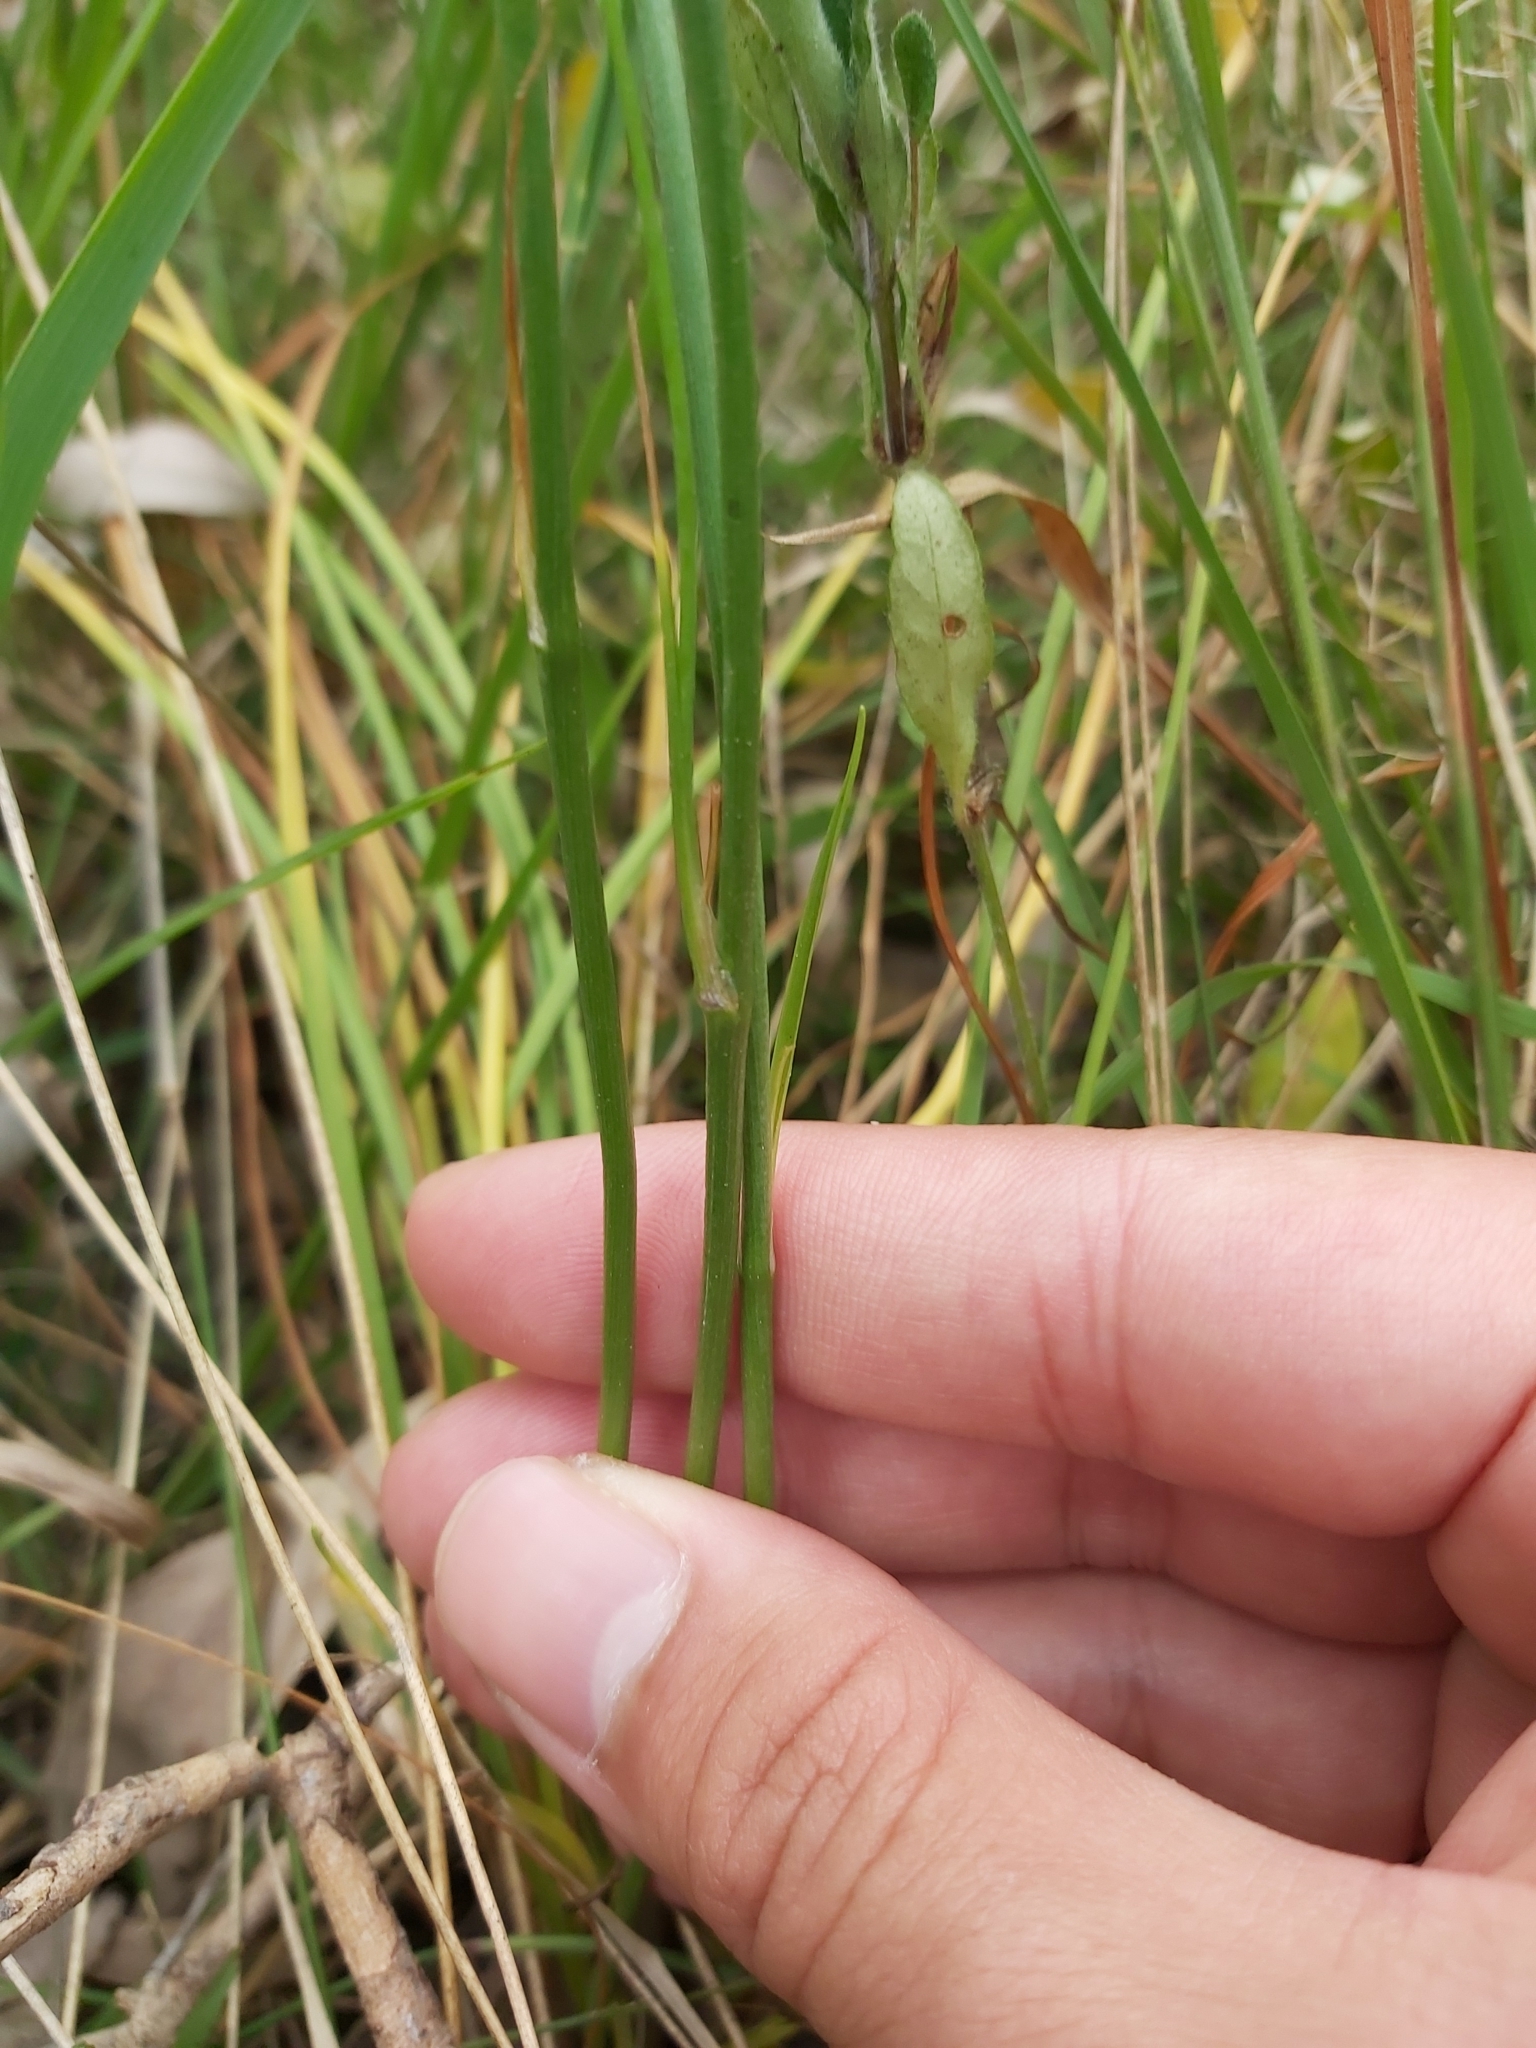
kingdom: Plantae
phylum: Tracheophyta
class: Liliopsida
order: Asparagales
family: Asparagaceae
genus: Arthropodium
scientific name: Arthropodium strictum
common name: Chocolate-lily
